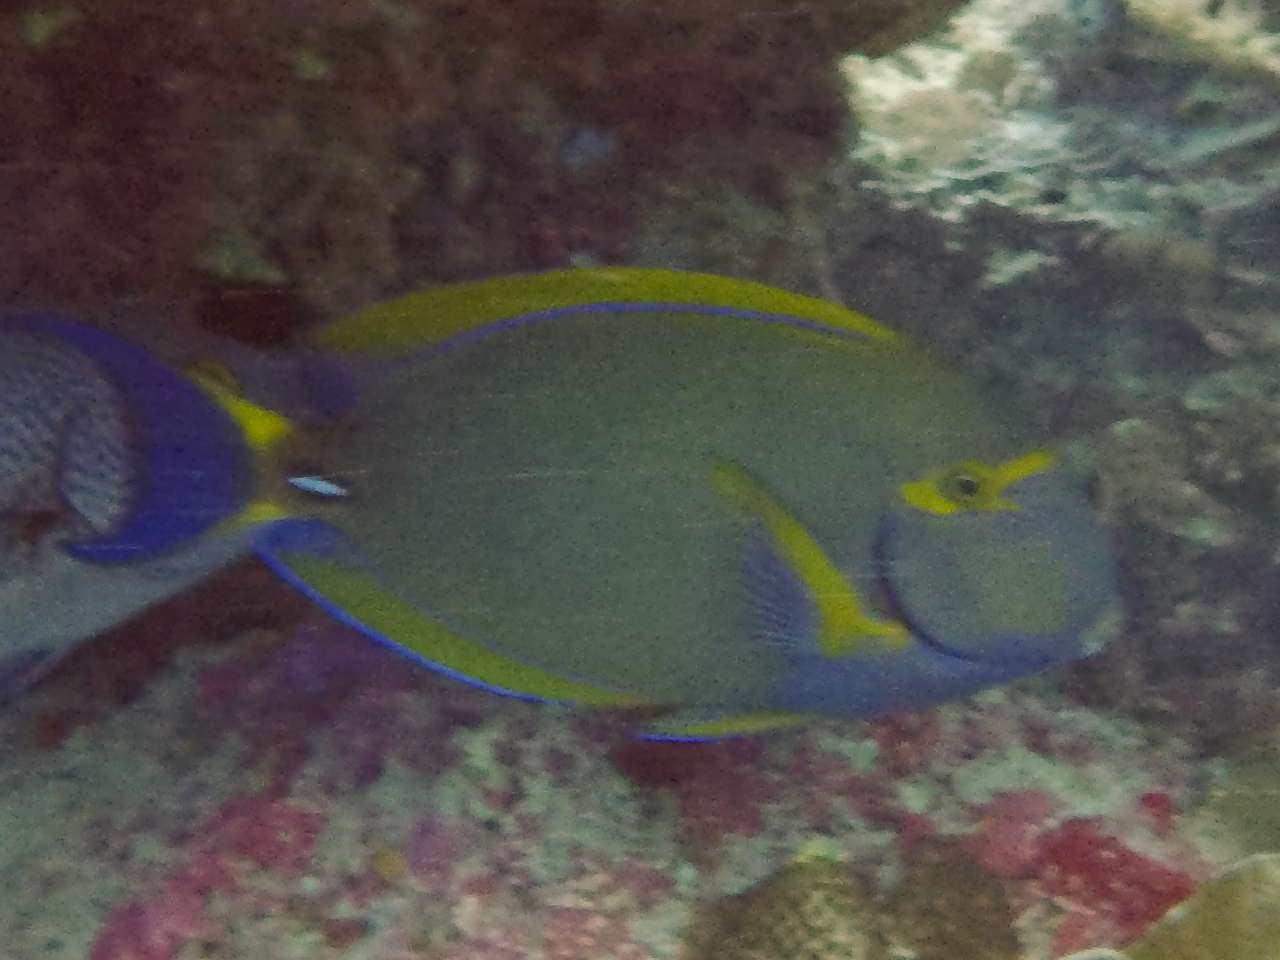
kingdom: Animalia
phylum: Chordata
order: Perciformes
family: Acanthuridae
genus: Acanthurus
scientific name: Acanthurus dussumieri
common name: Dussumier's surgeonfish
